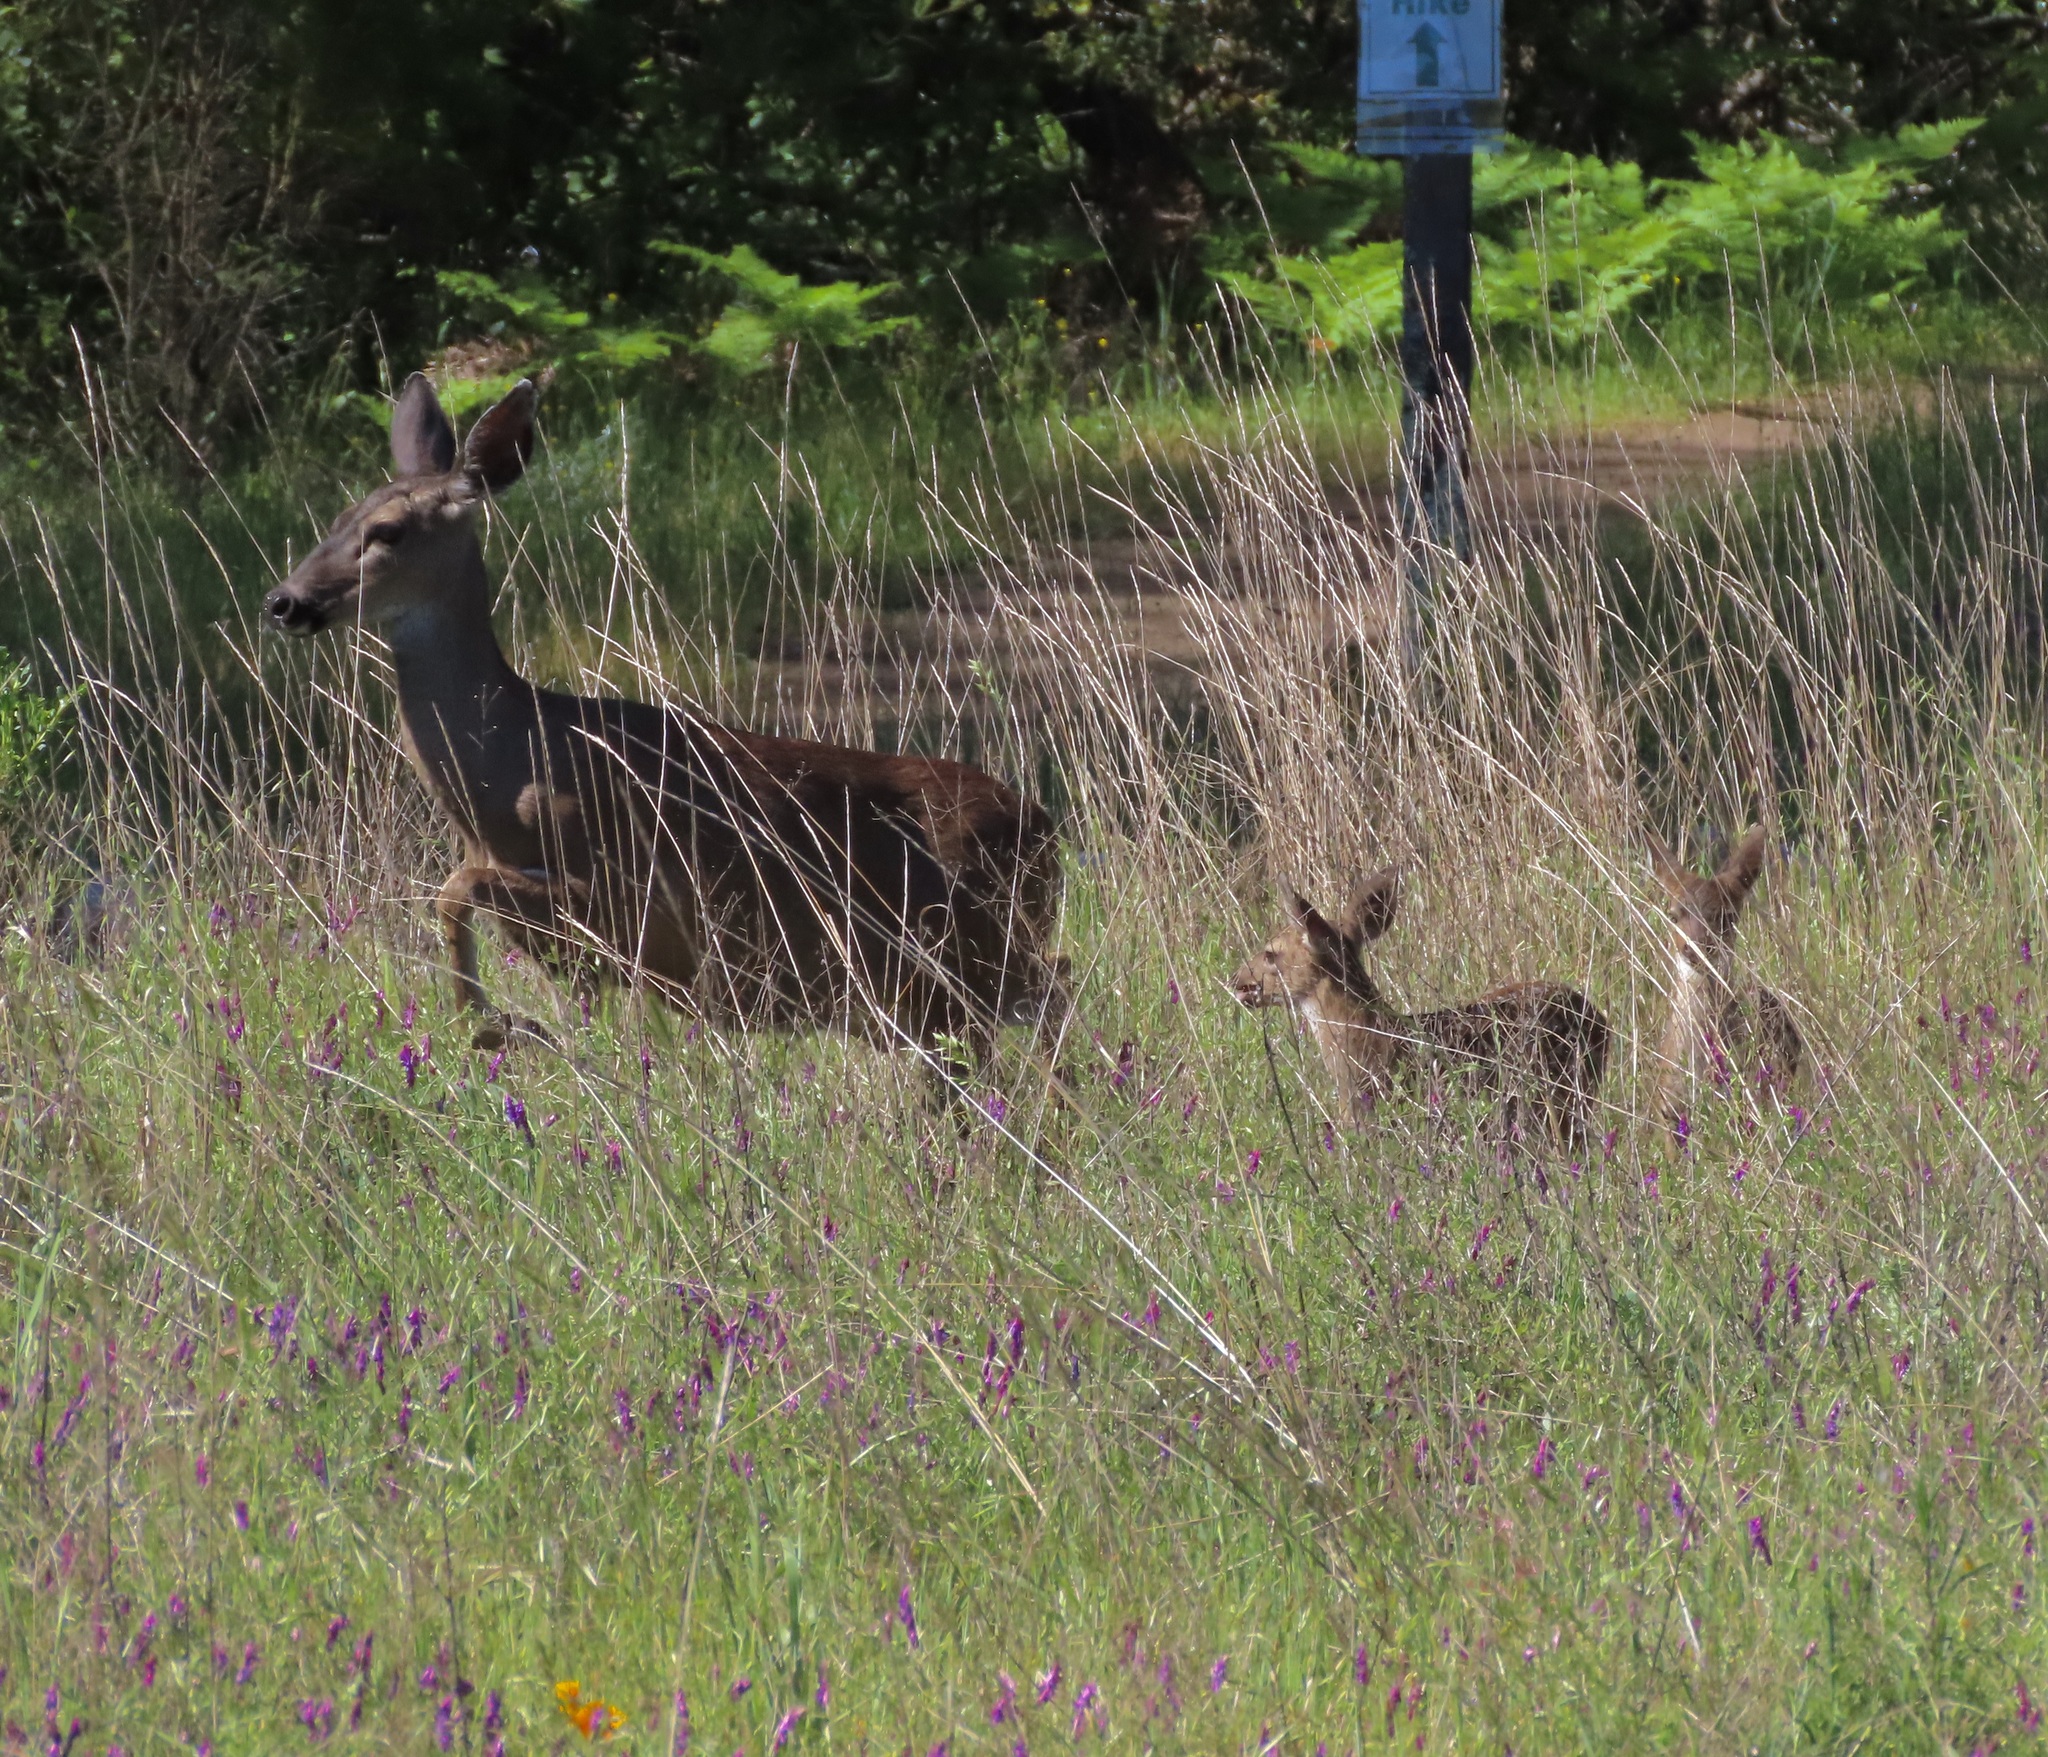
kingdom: Animalia
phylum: Chordata
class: Mammalia
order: Artiodactyla
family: Cervidae
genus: Odocoileus
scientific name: Odocoileus hemionus
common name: Mule deer
